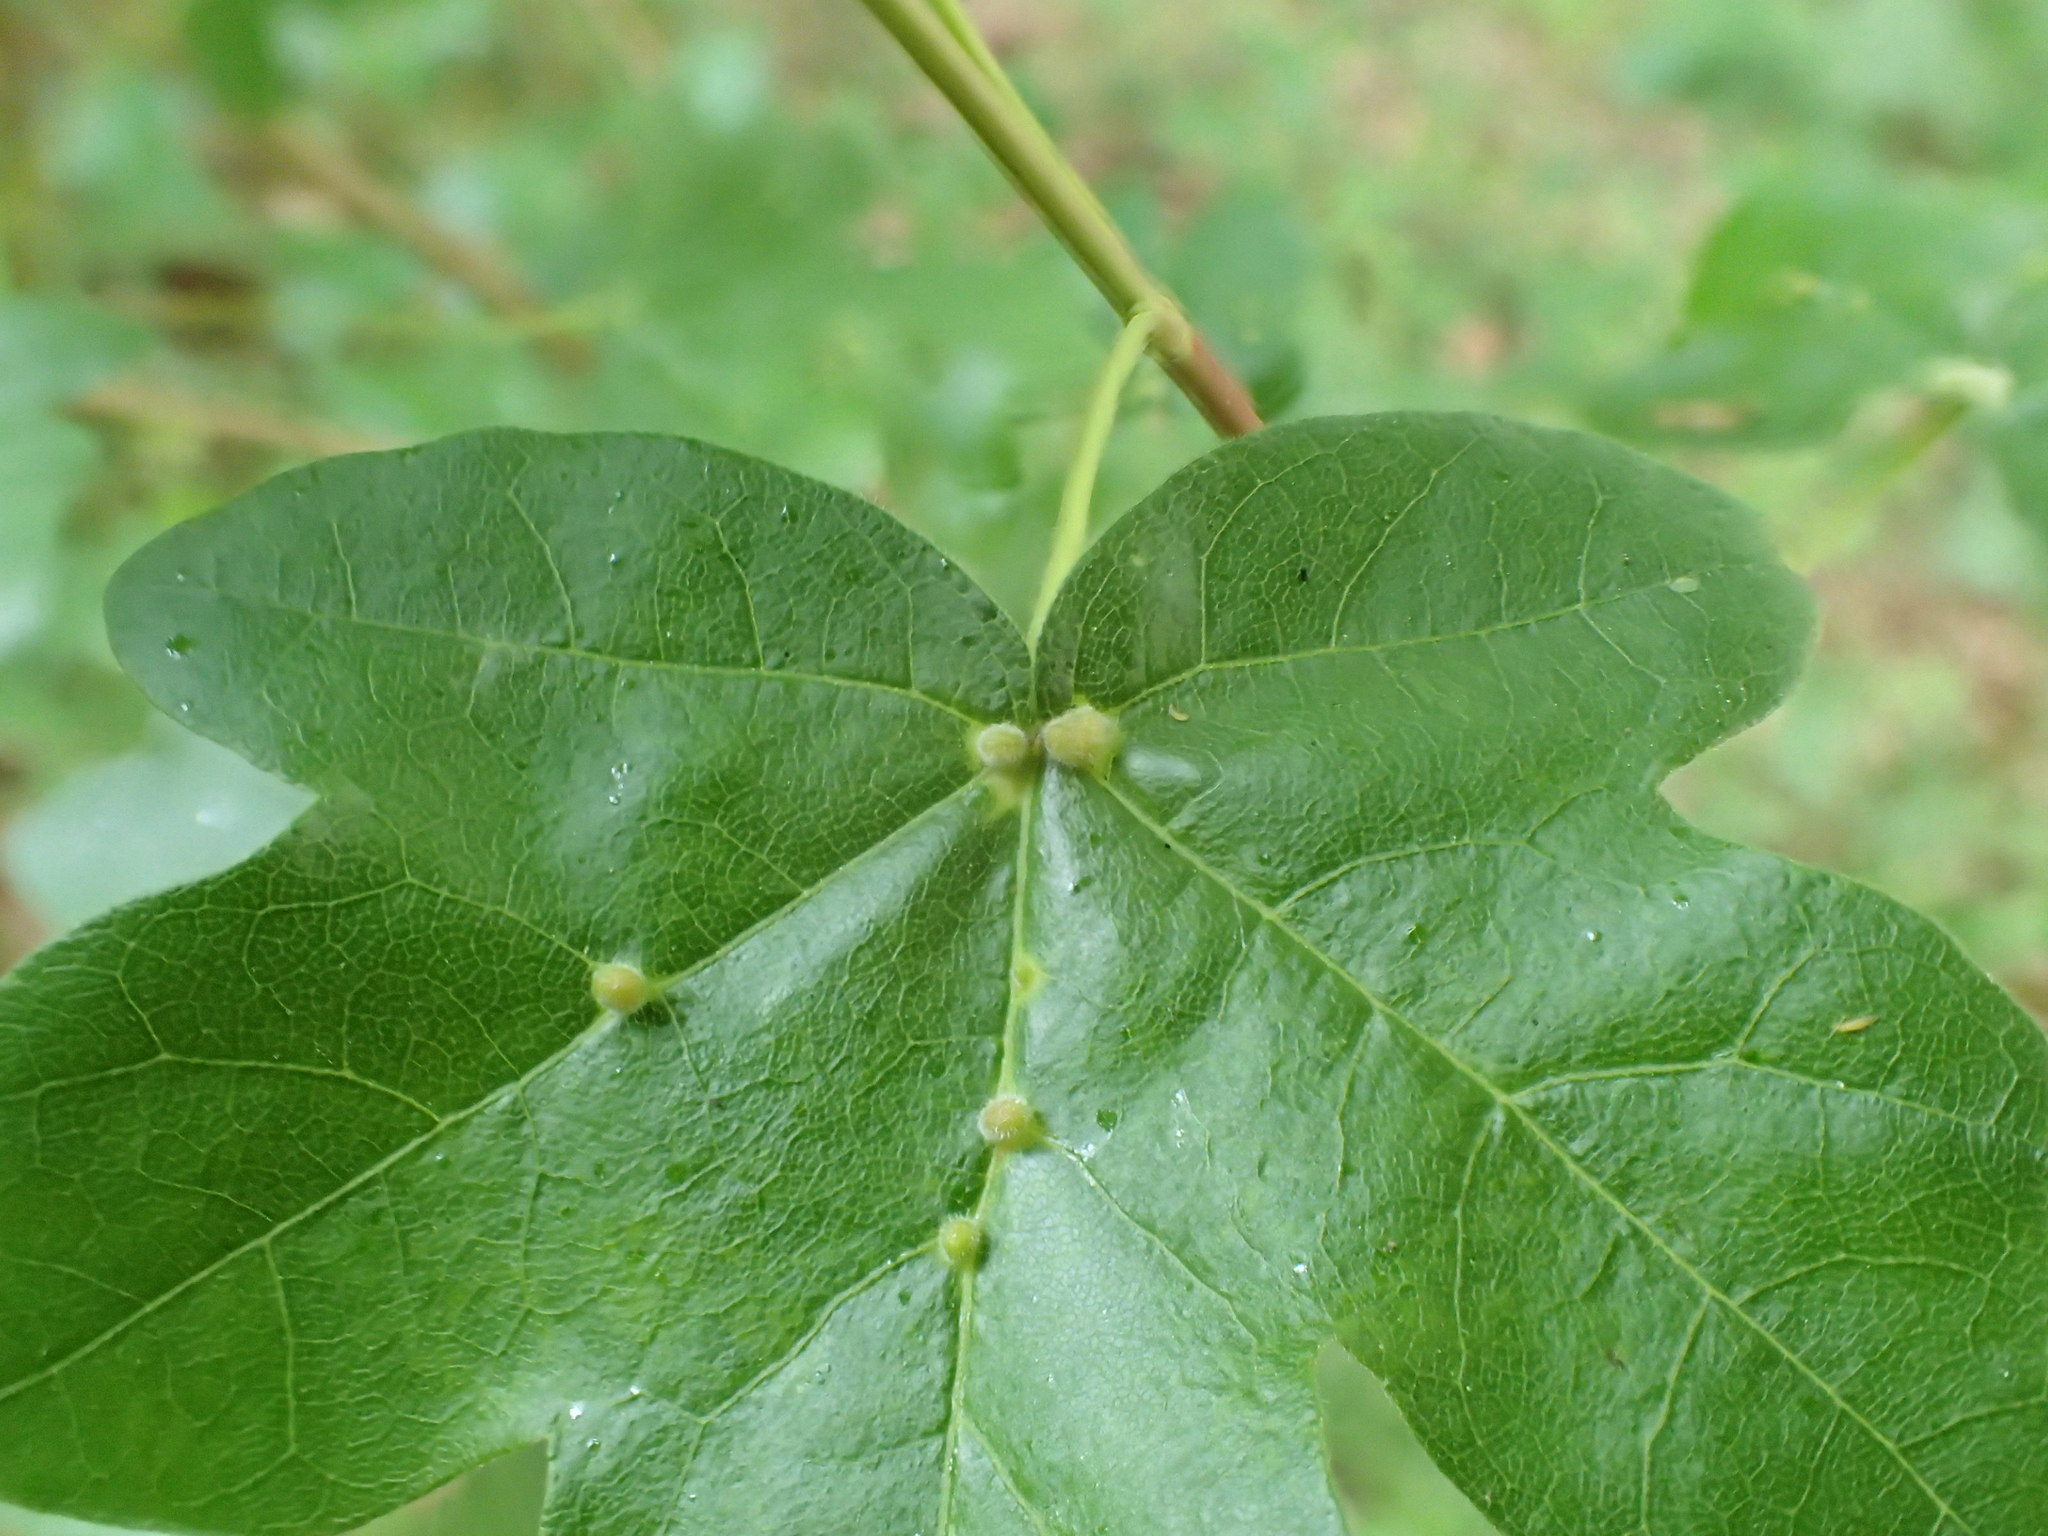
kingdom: Animalia
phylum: Arthropoda
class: Arachnida
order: Trombidiformes
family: Eriophyidae
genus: Aceria
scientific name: Aceria macrochelus
